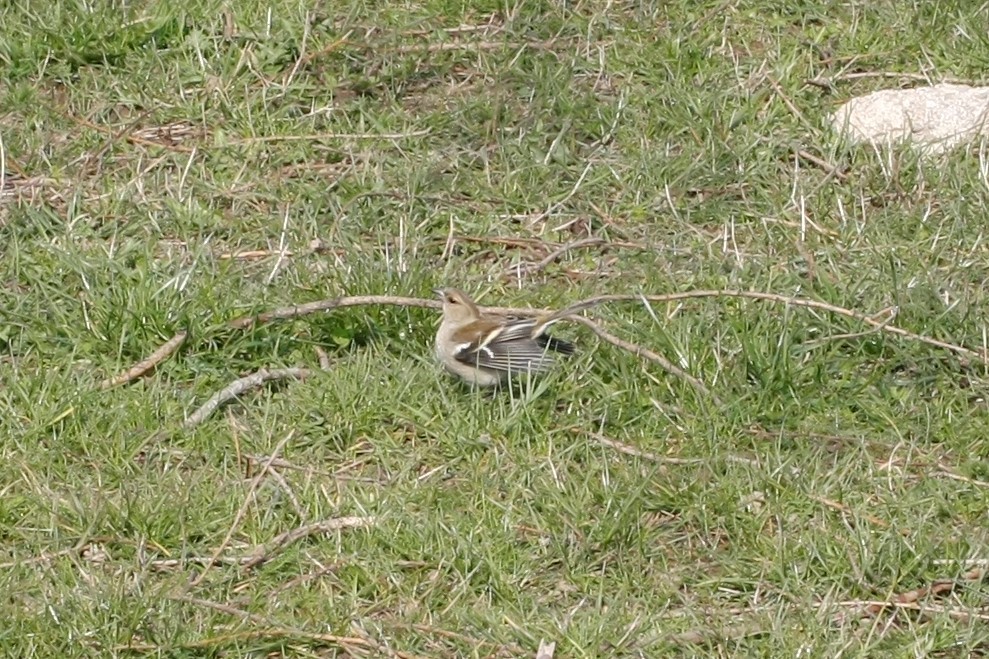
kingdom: Animalia
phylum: Chordata
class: Aves
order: Passeriformes
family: Fringillidae
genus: Fringilla
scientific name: Fringilla coelebs
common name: Common chaffinch
